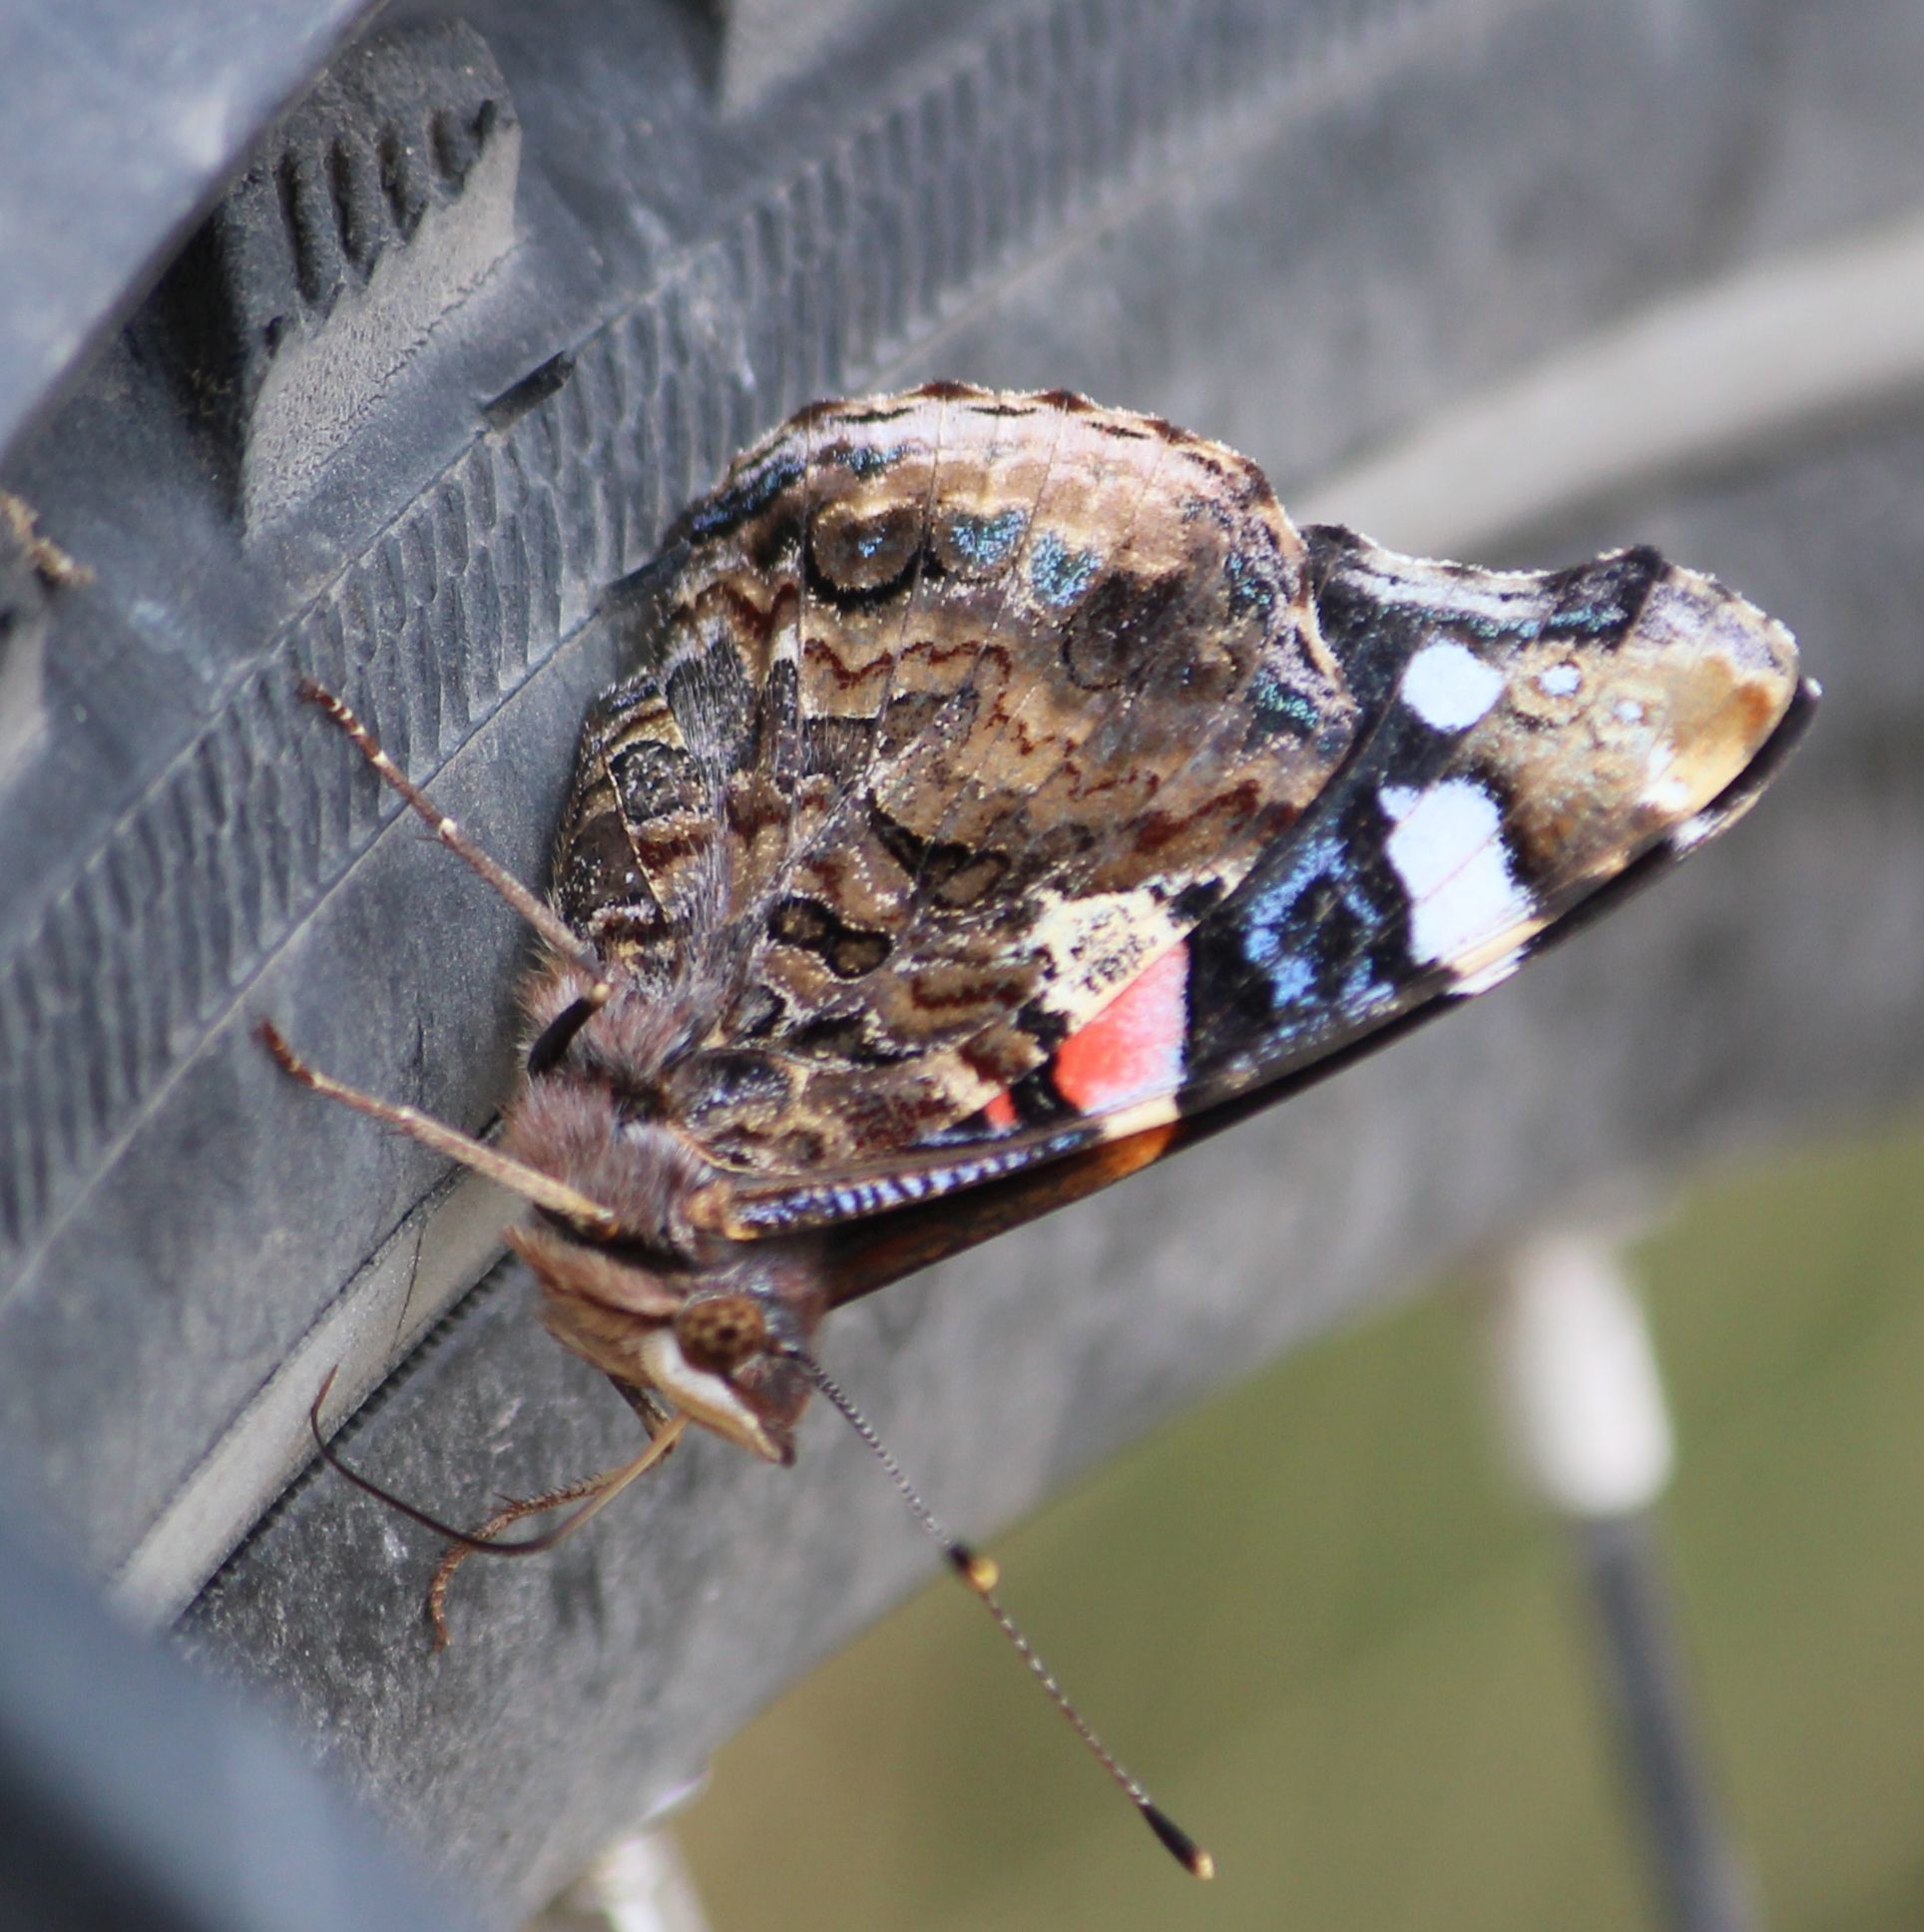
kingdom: Animalia
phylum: Arthropoda
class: Insecta
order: Lepidoptera
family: Nymphalidae
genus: Vanessa
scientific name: Vanessa atalanta
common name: Red admiral
